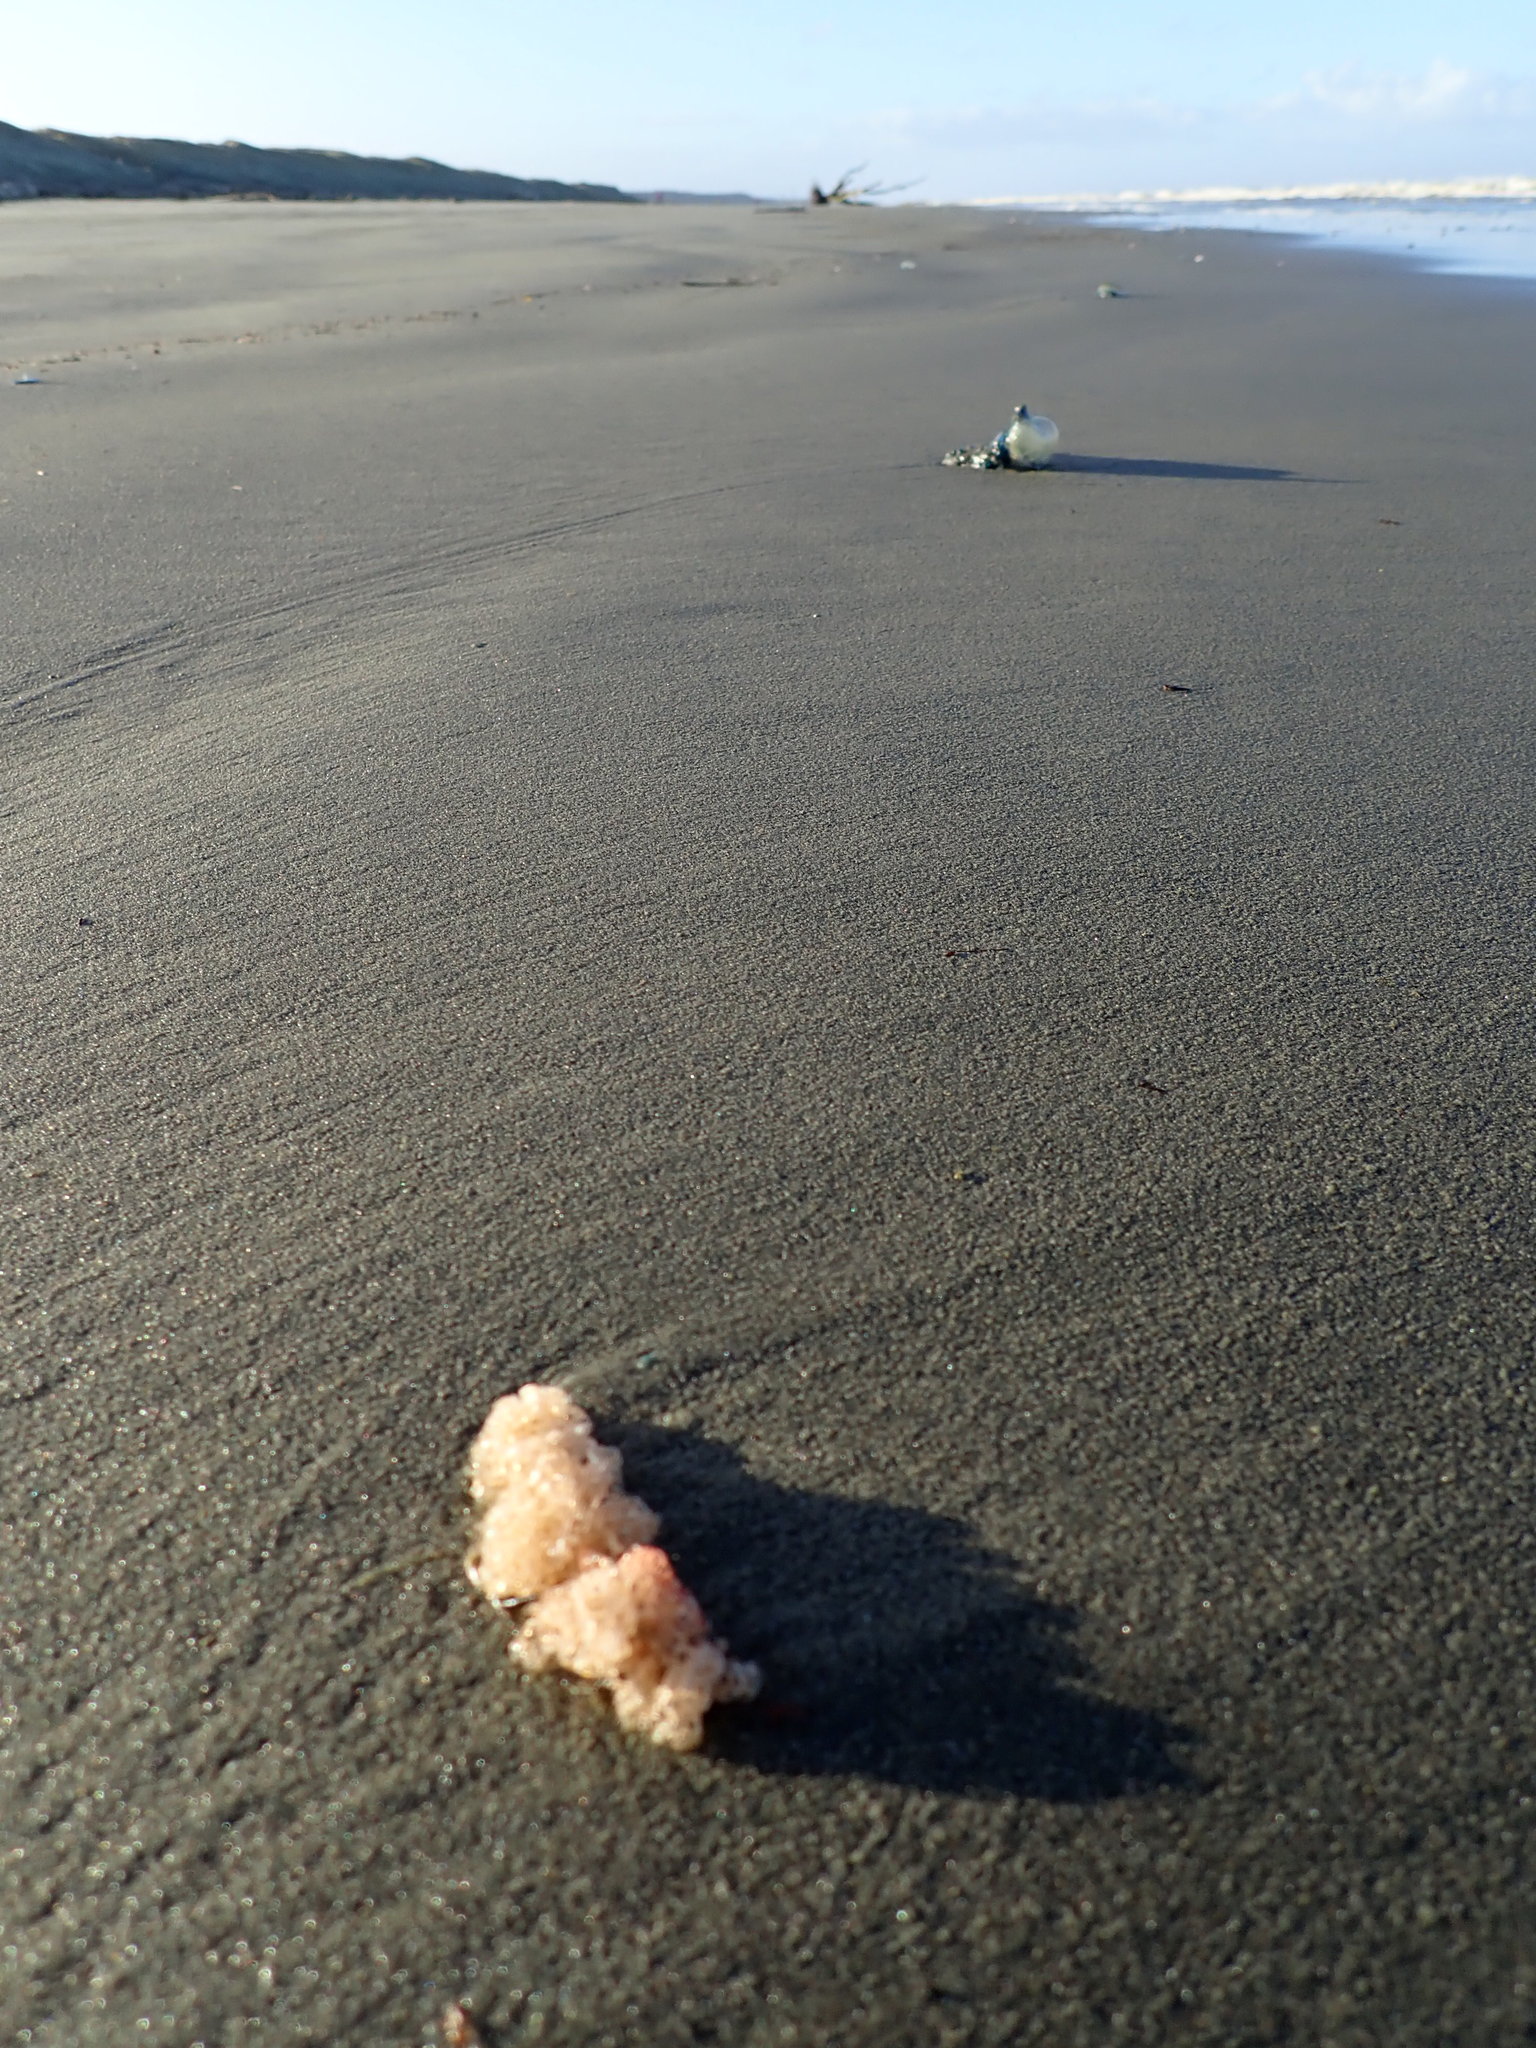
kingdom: Animalia
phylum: Bryozoa
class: Gymnolaemata
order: Ctenostomatida
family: Vesiculariidae
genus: Amathia
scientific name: Amathia wilsoni
